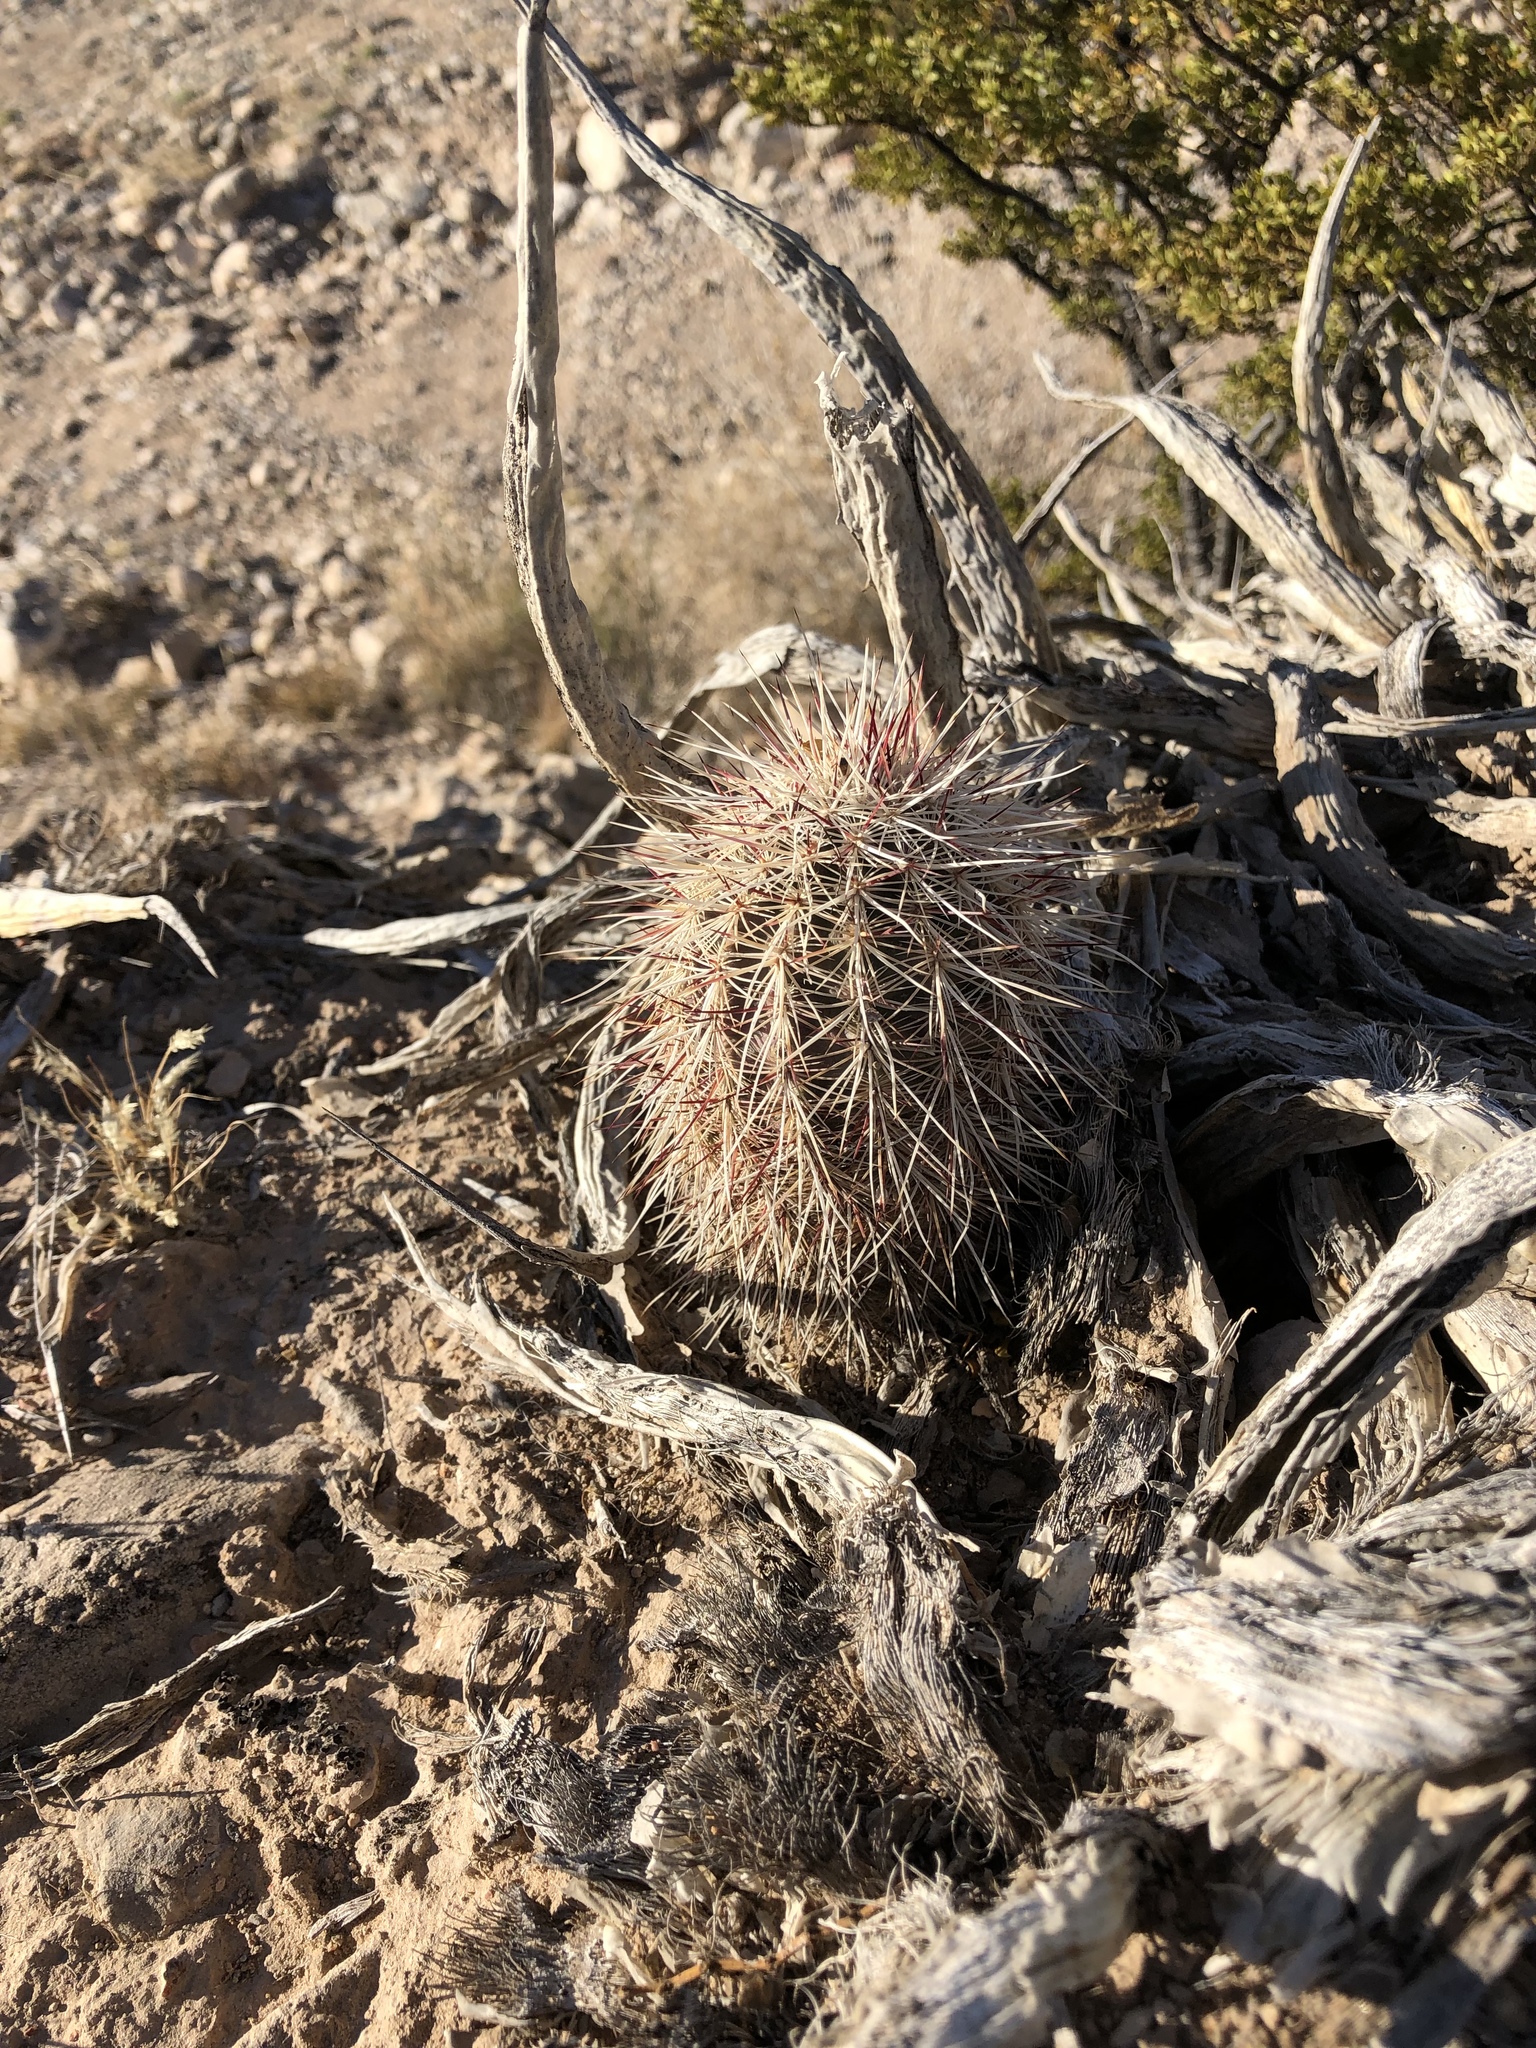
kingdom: Plantae
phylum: Tracheophyta
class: Magnoliopsida
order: Caryophyllales
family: Cactaceae
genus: Echinocereus
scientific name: Echinocereus viridiflorus
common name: Nylon hedgehog cactus
